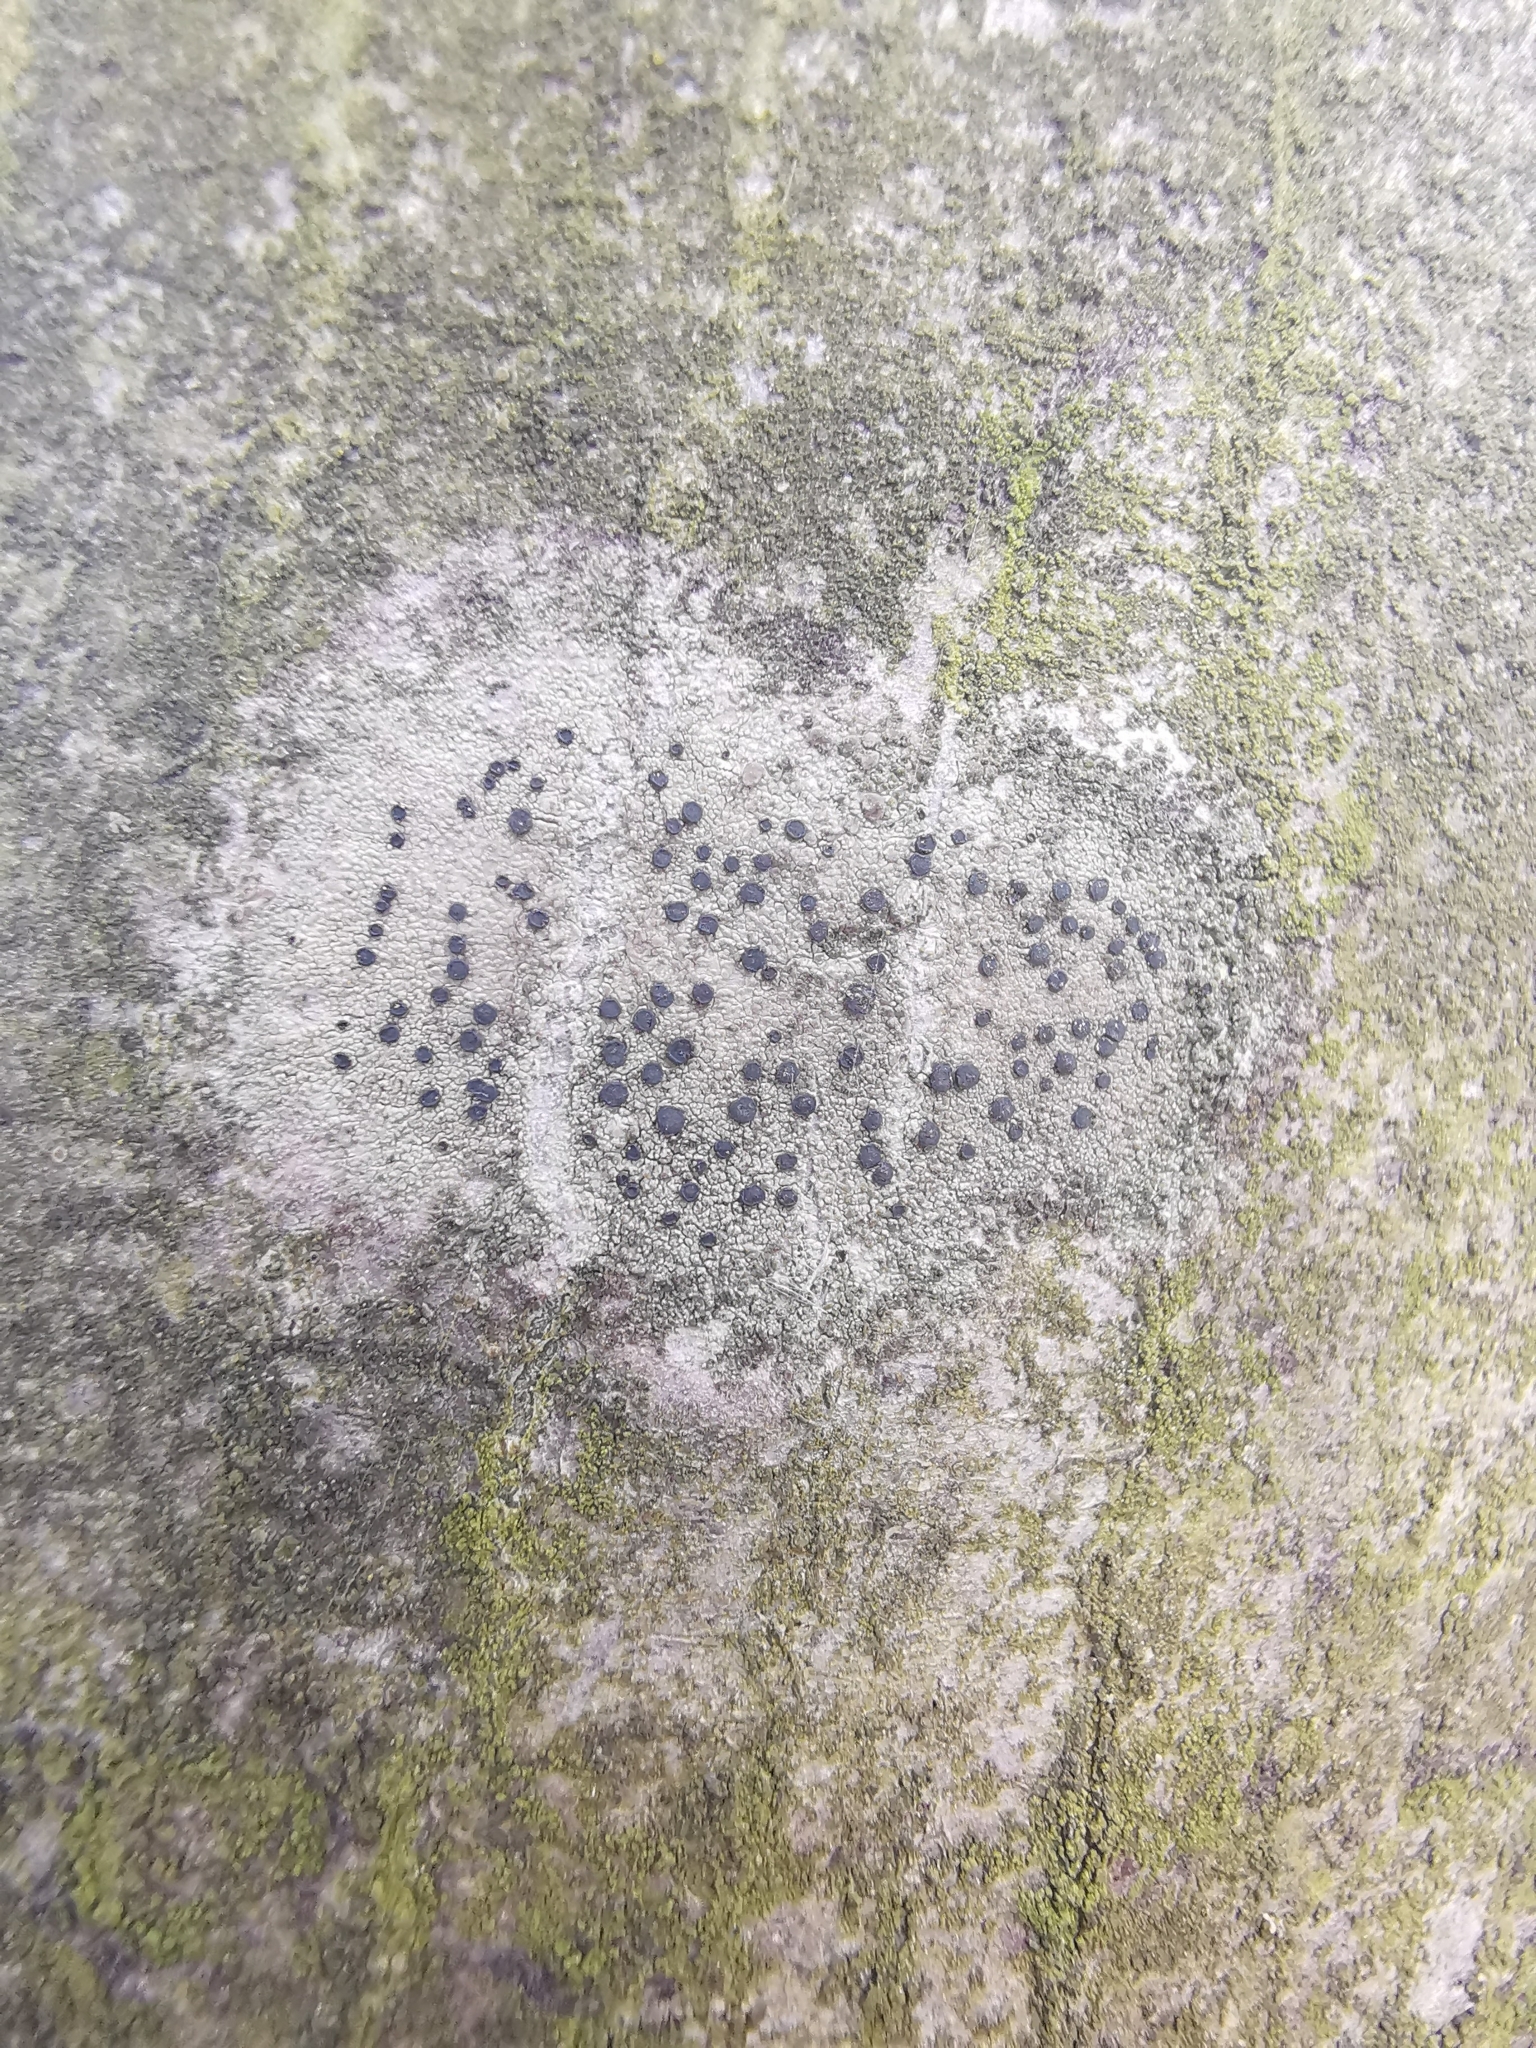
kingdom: Fungi
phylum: Ascomycota
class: Lecanoromycetes
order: Lecanorales
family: Lecanoraceae
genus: Lecidella
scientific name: Lecidella elaeochroma
